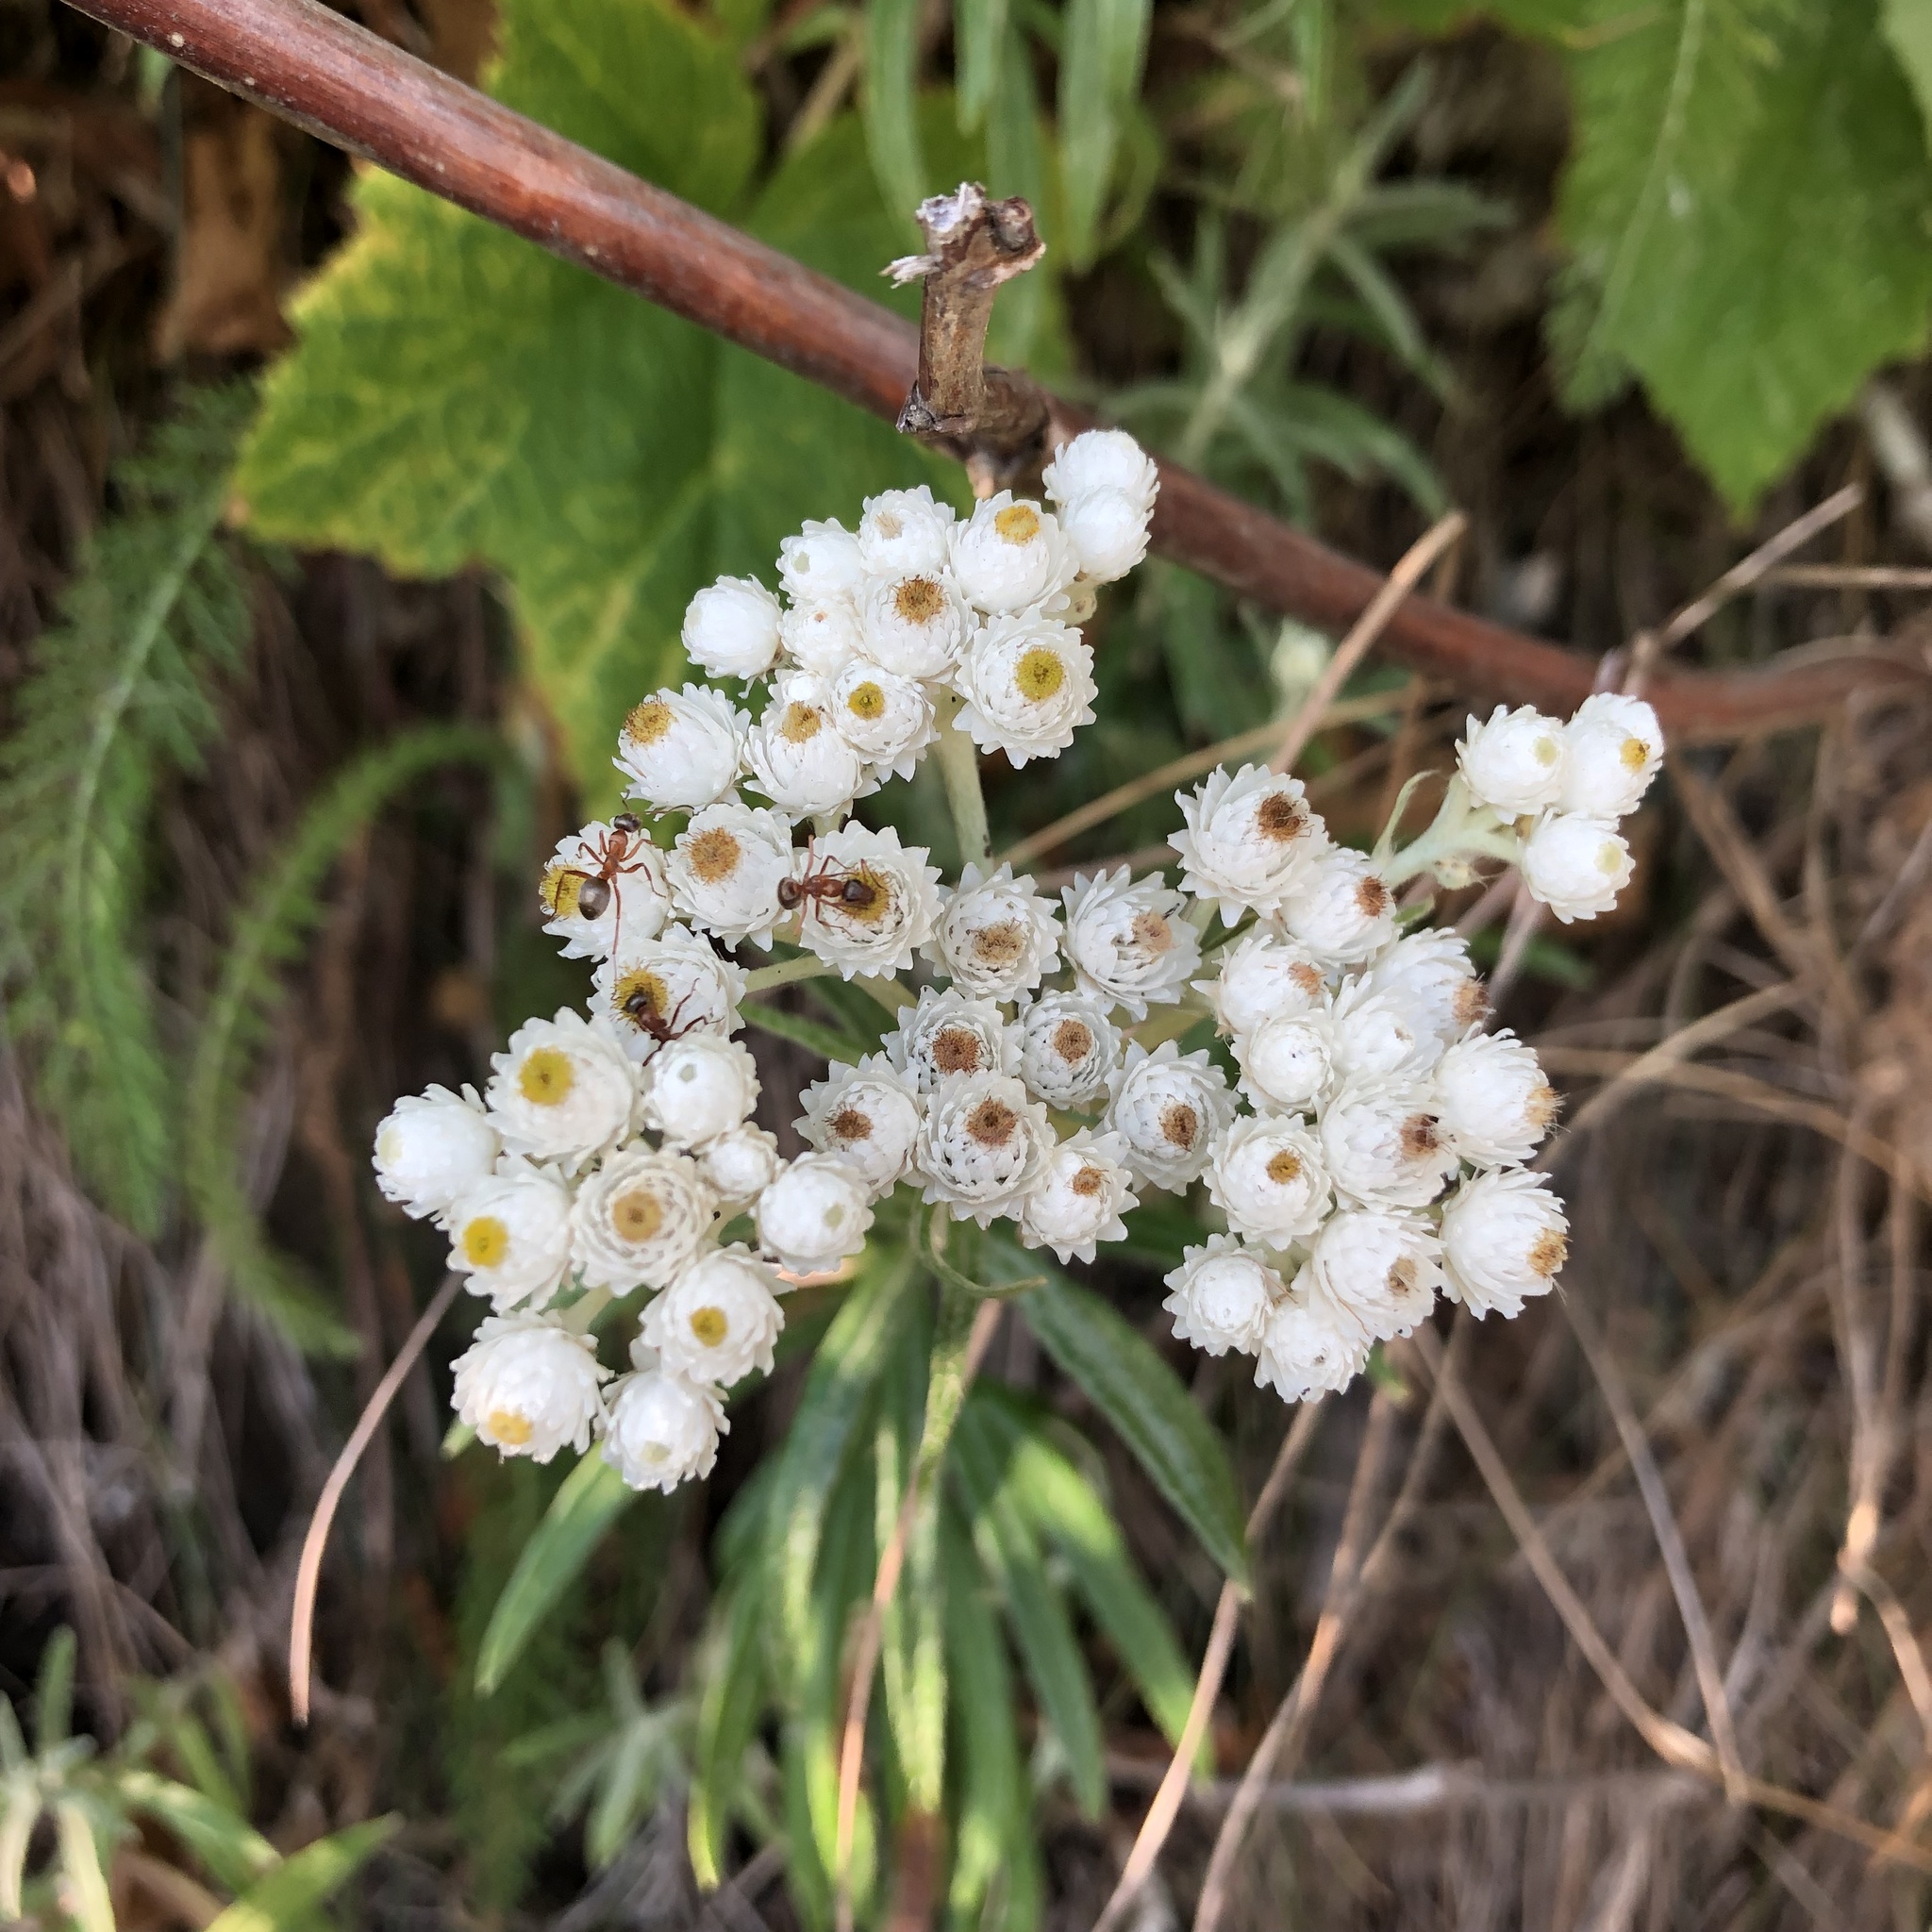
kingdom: Plantae
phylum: Tracheophyta
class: Magnoliopsida
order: Asterales
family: Asteraceae
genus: Anaphalis
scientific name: Anaphalis margaritacea
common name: Pearly everlasting
